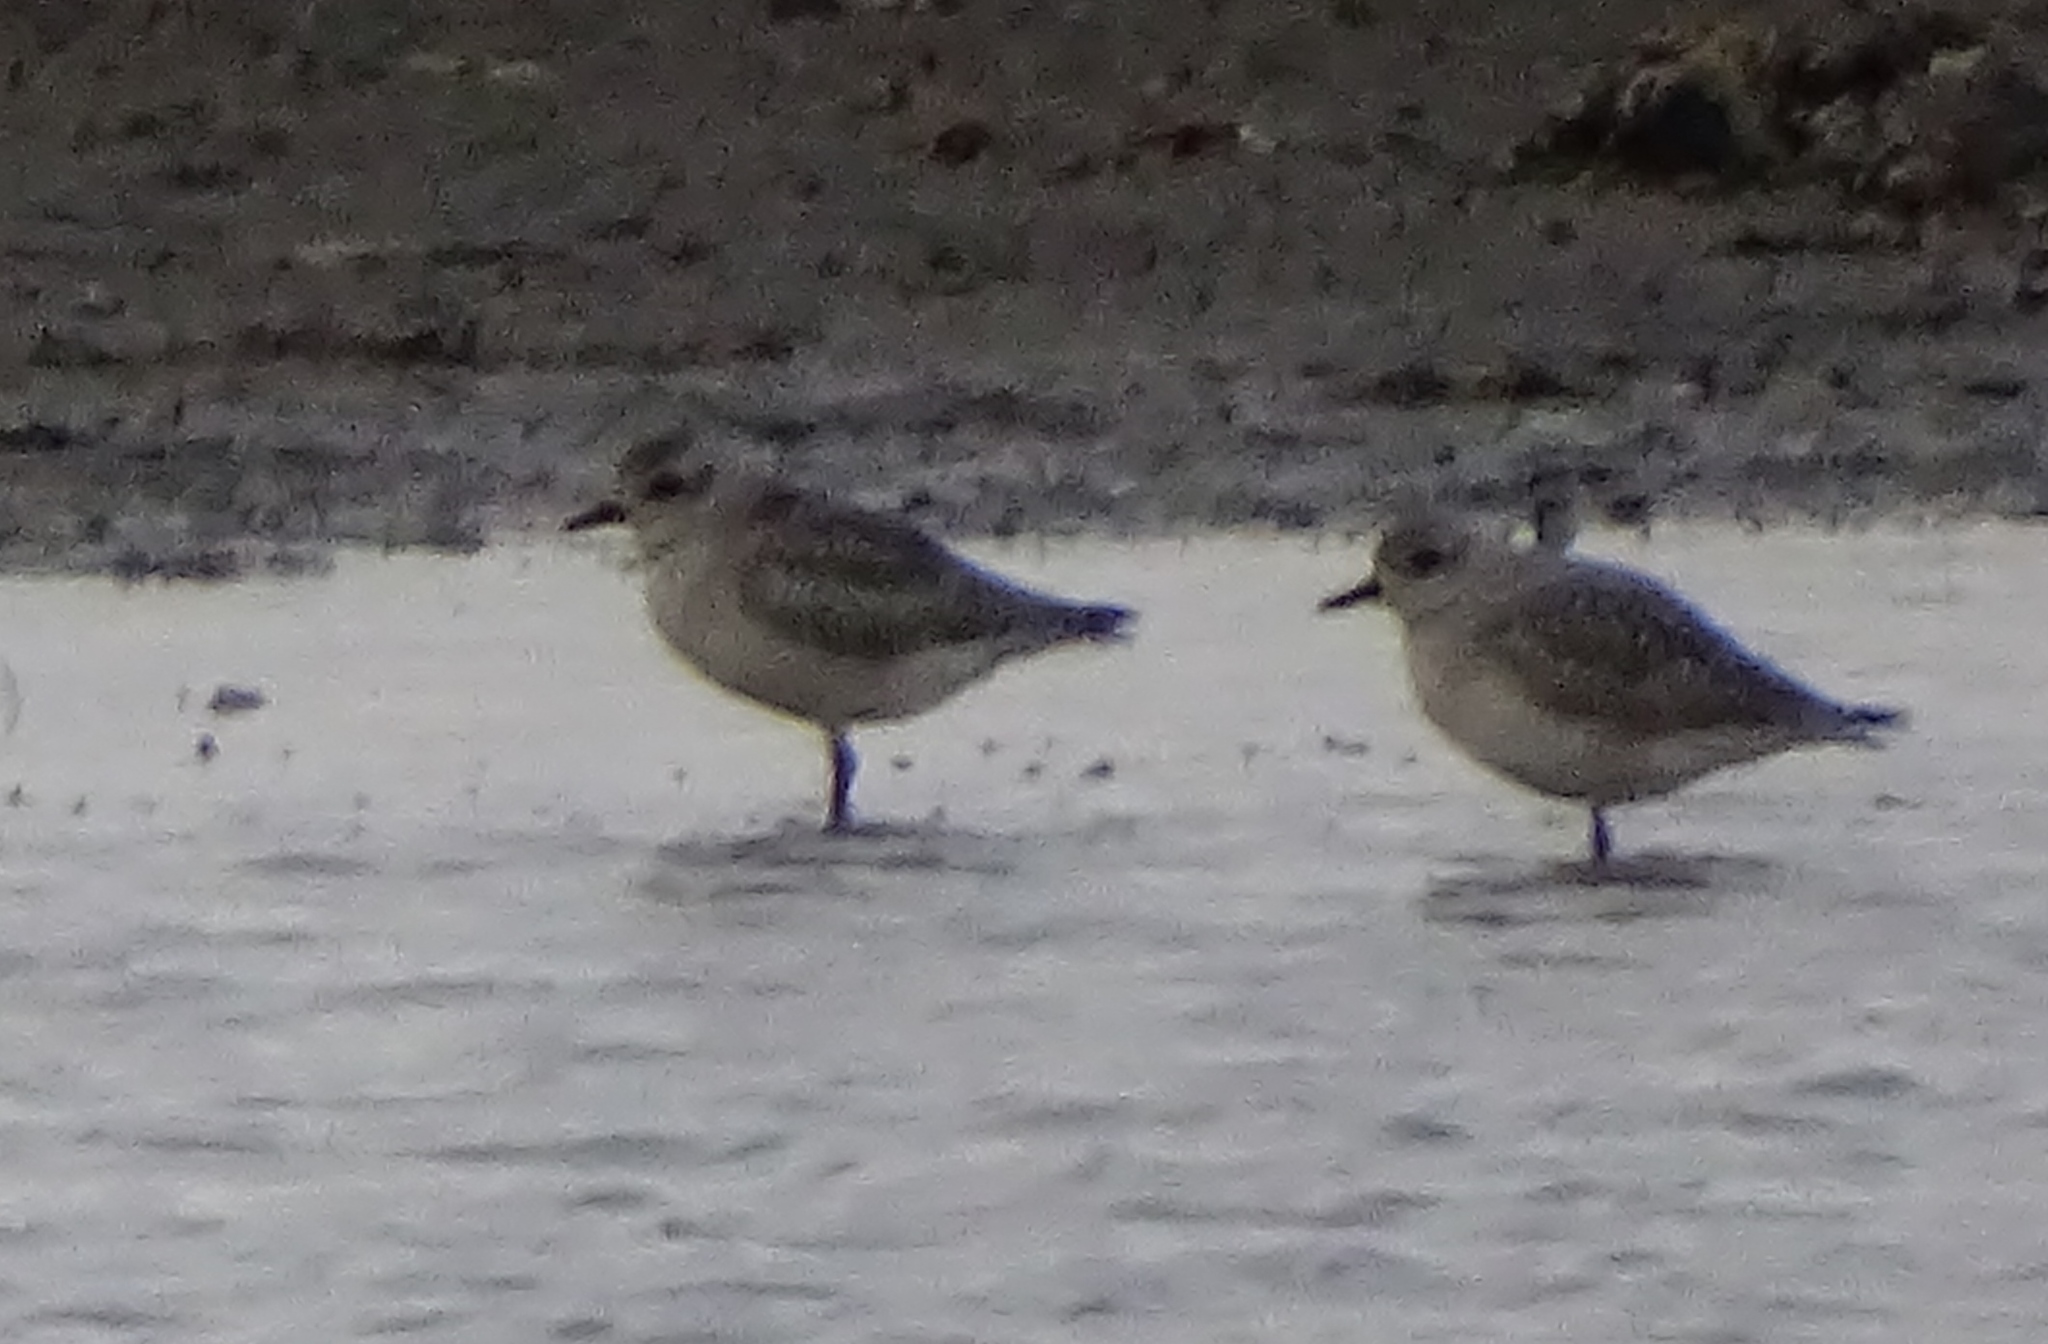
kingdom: Animalia
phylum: Chordata
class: Aves
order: Charadriiformes
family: Charadriidae
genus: Pluvialis
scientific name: Pluvialis squatarola
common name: Grey plover
